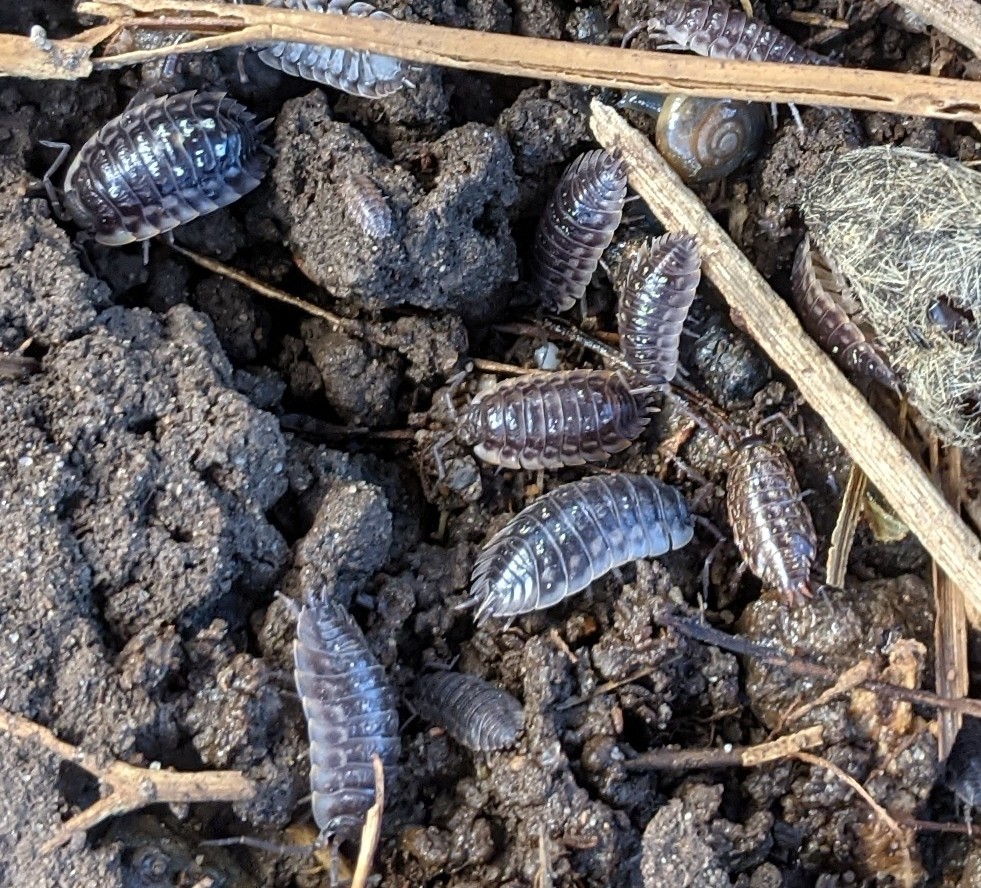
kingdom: Animalia
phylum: Arthropoda
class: Malacostraca
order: Isopoda
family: Oniscidae
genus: Oniscus
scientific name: Oniscus asellus
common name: Common shiny woodlouse
